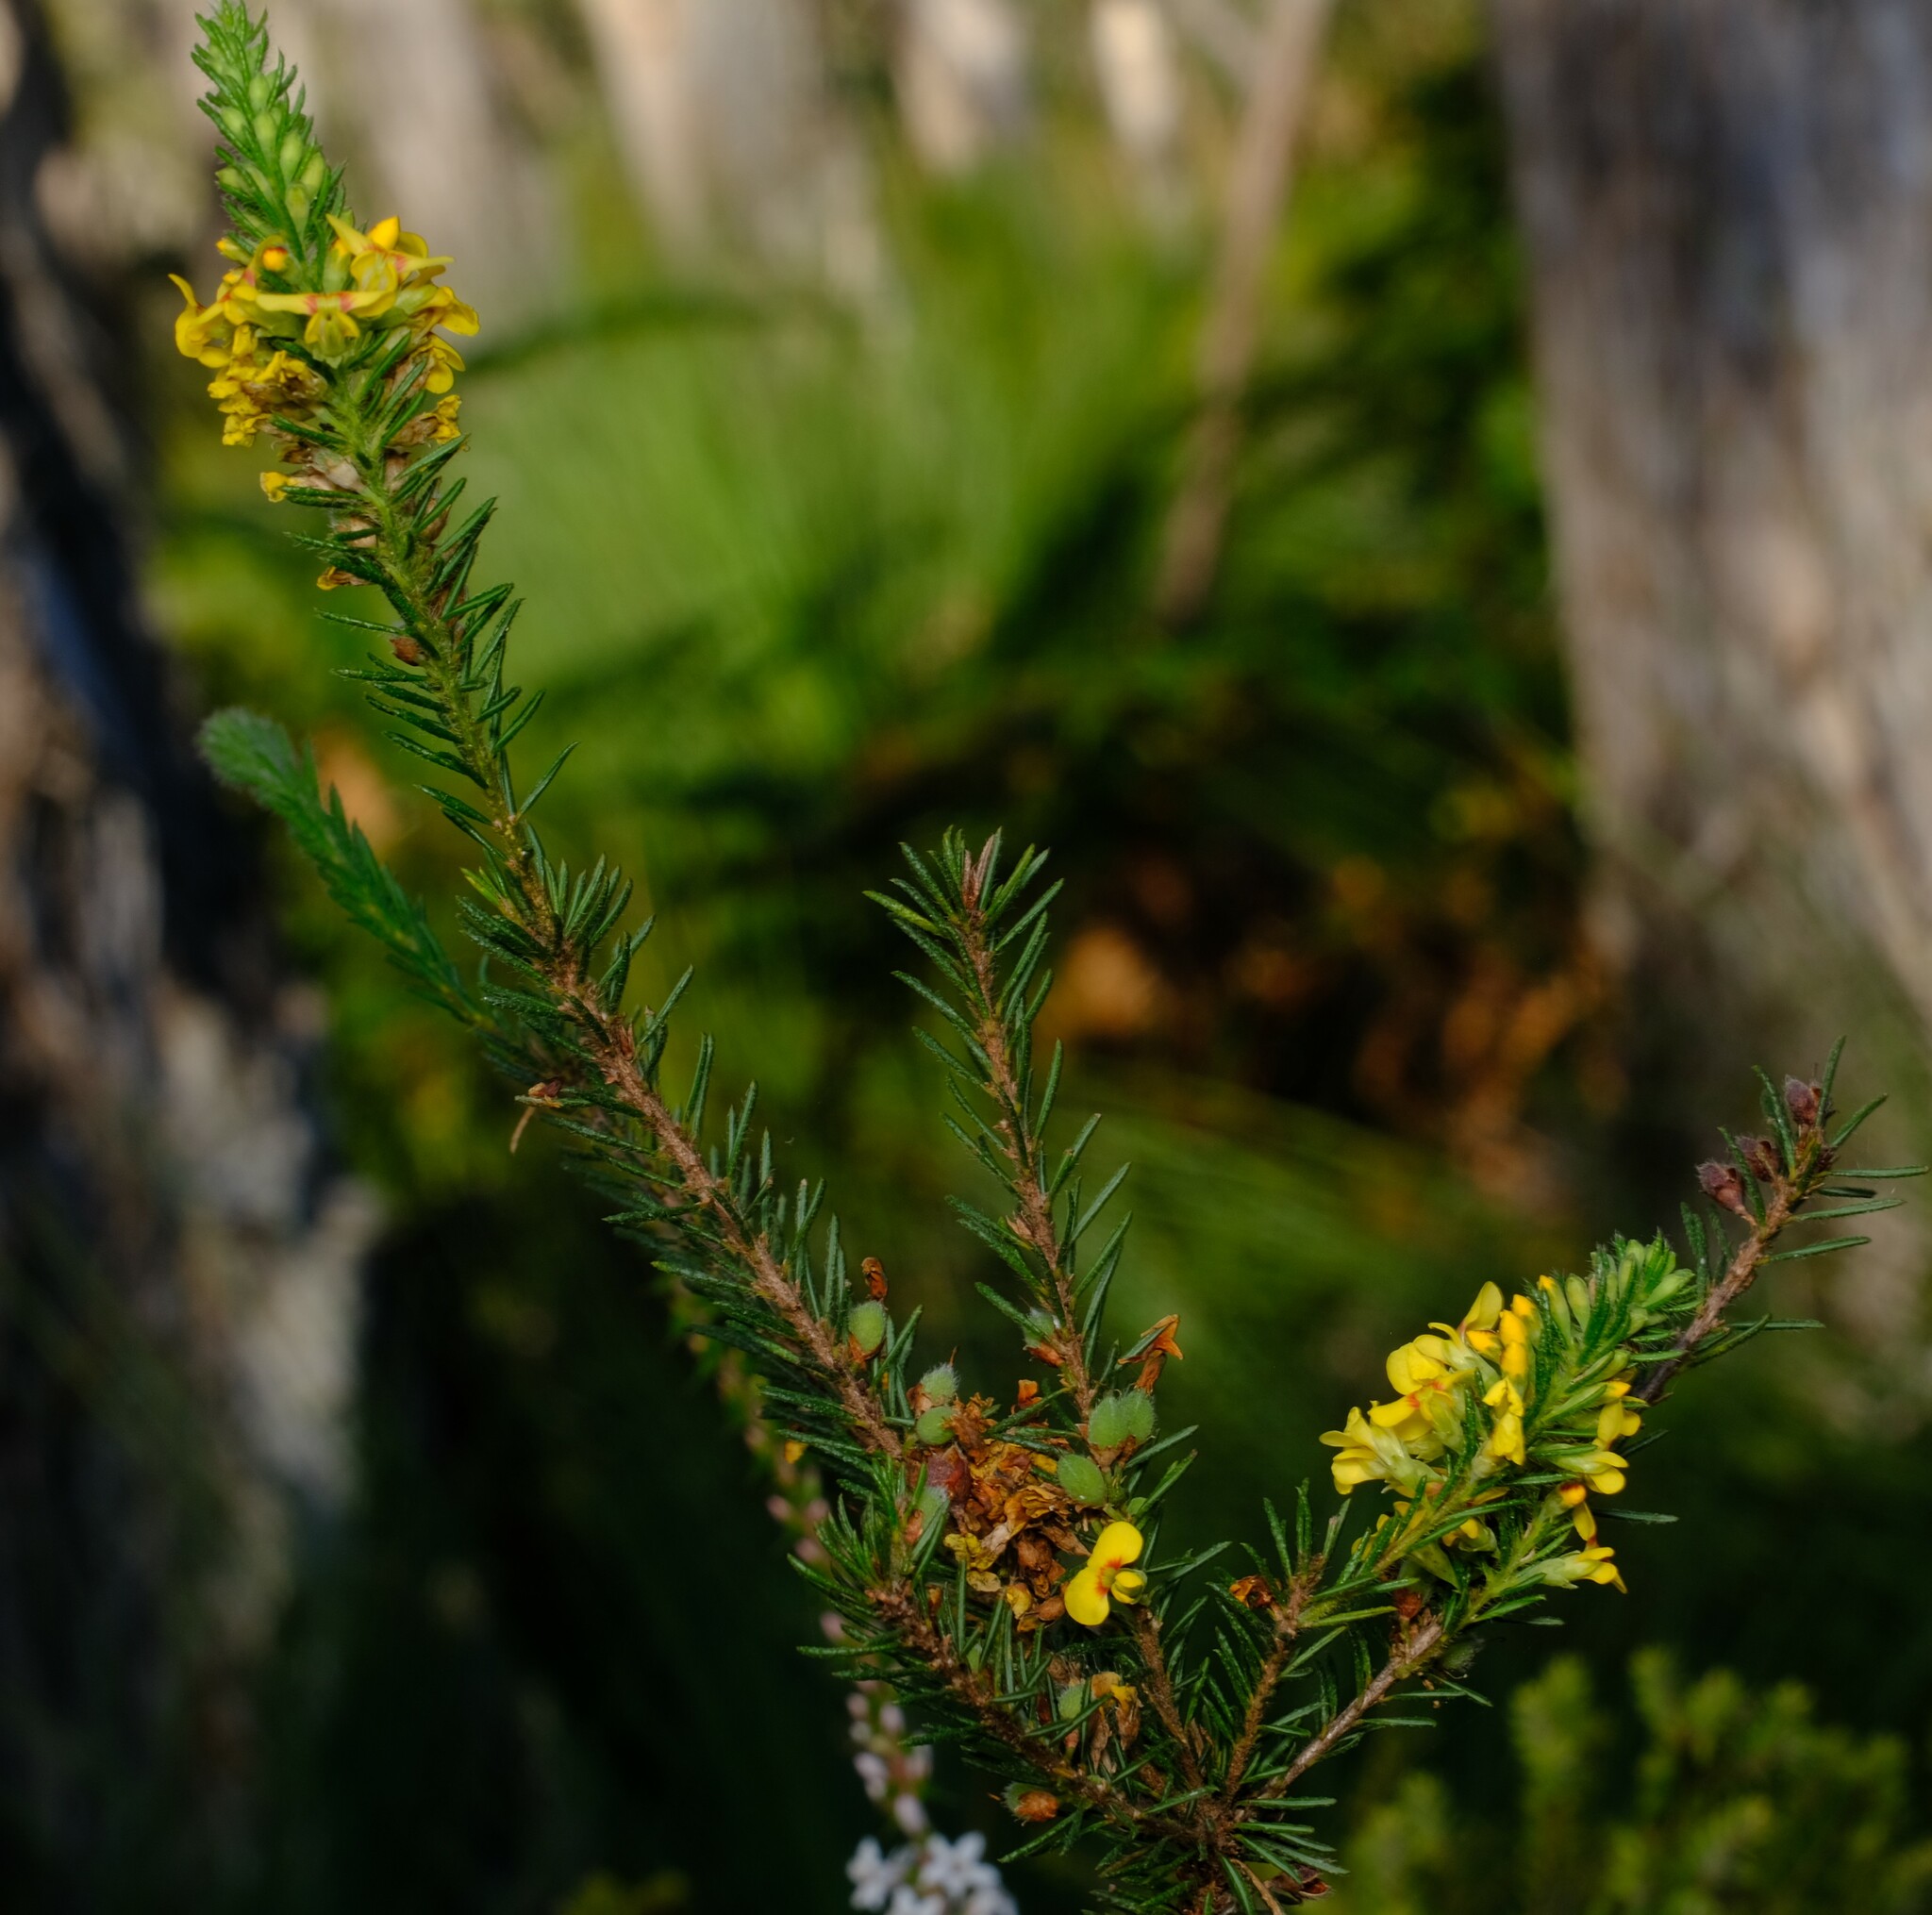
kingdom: Plantae
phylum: Tracheophyta
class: Magnoliopsida
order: Fabales
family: Fabaceae
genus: Dillwynia
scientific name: Dillwynia floribunda
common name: Eggs-and-bacon
